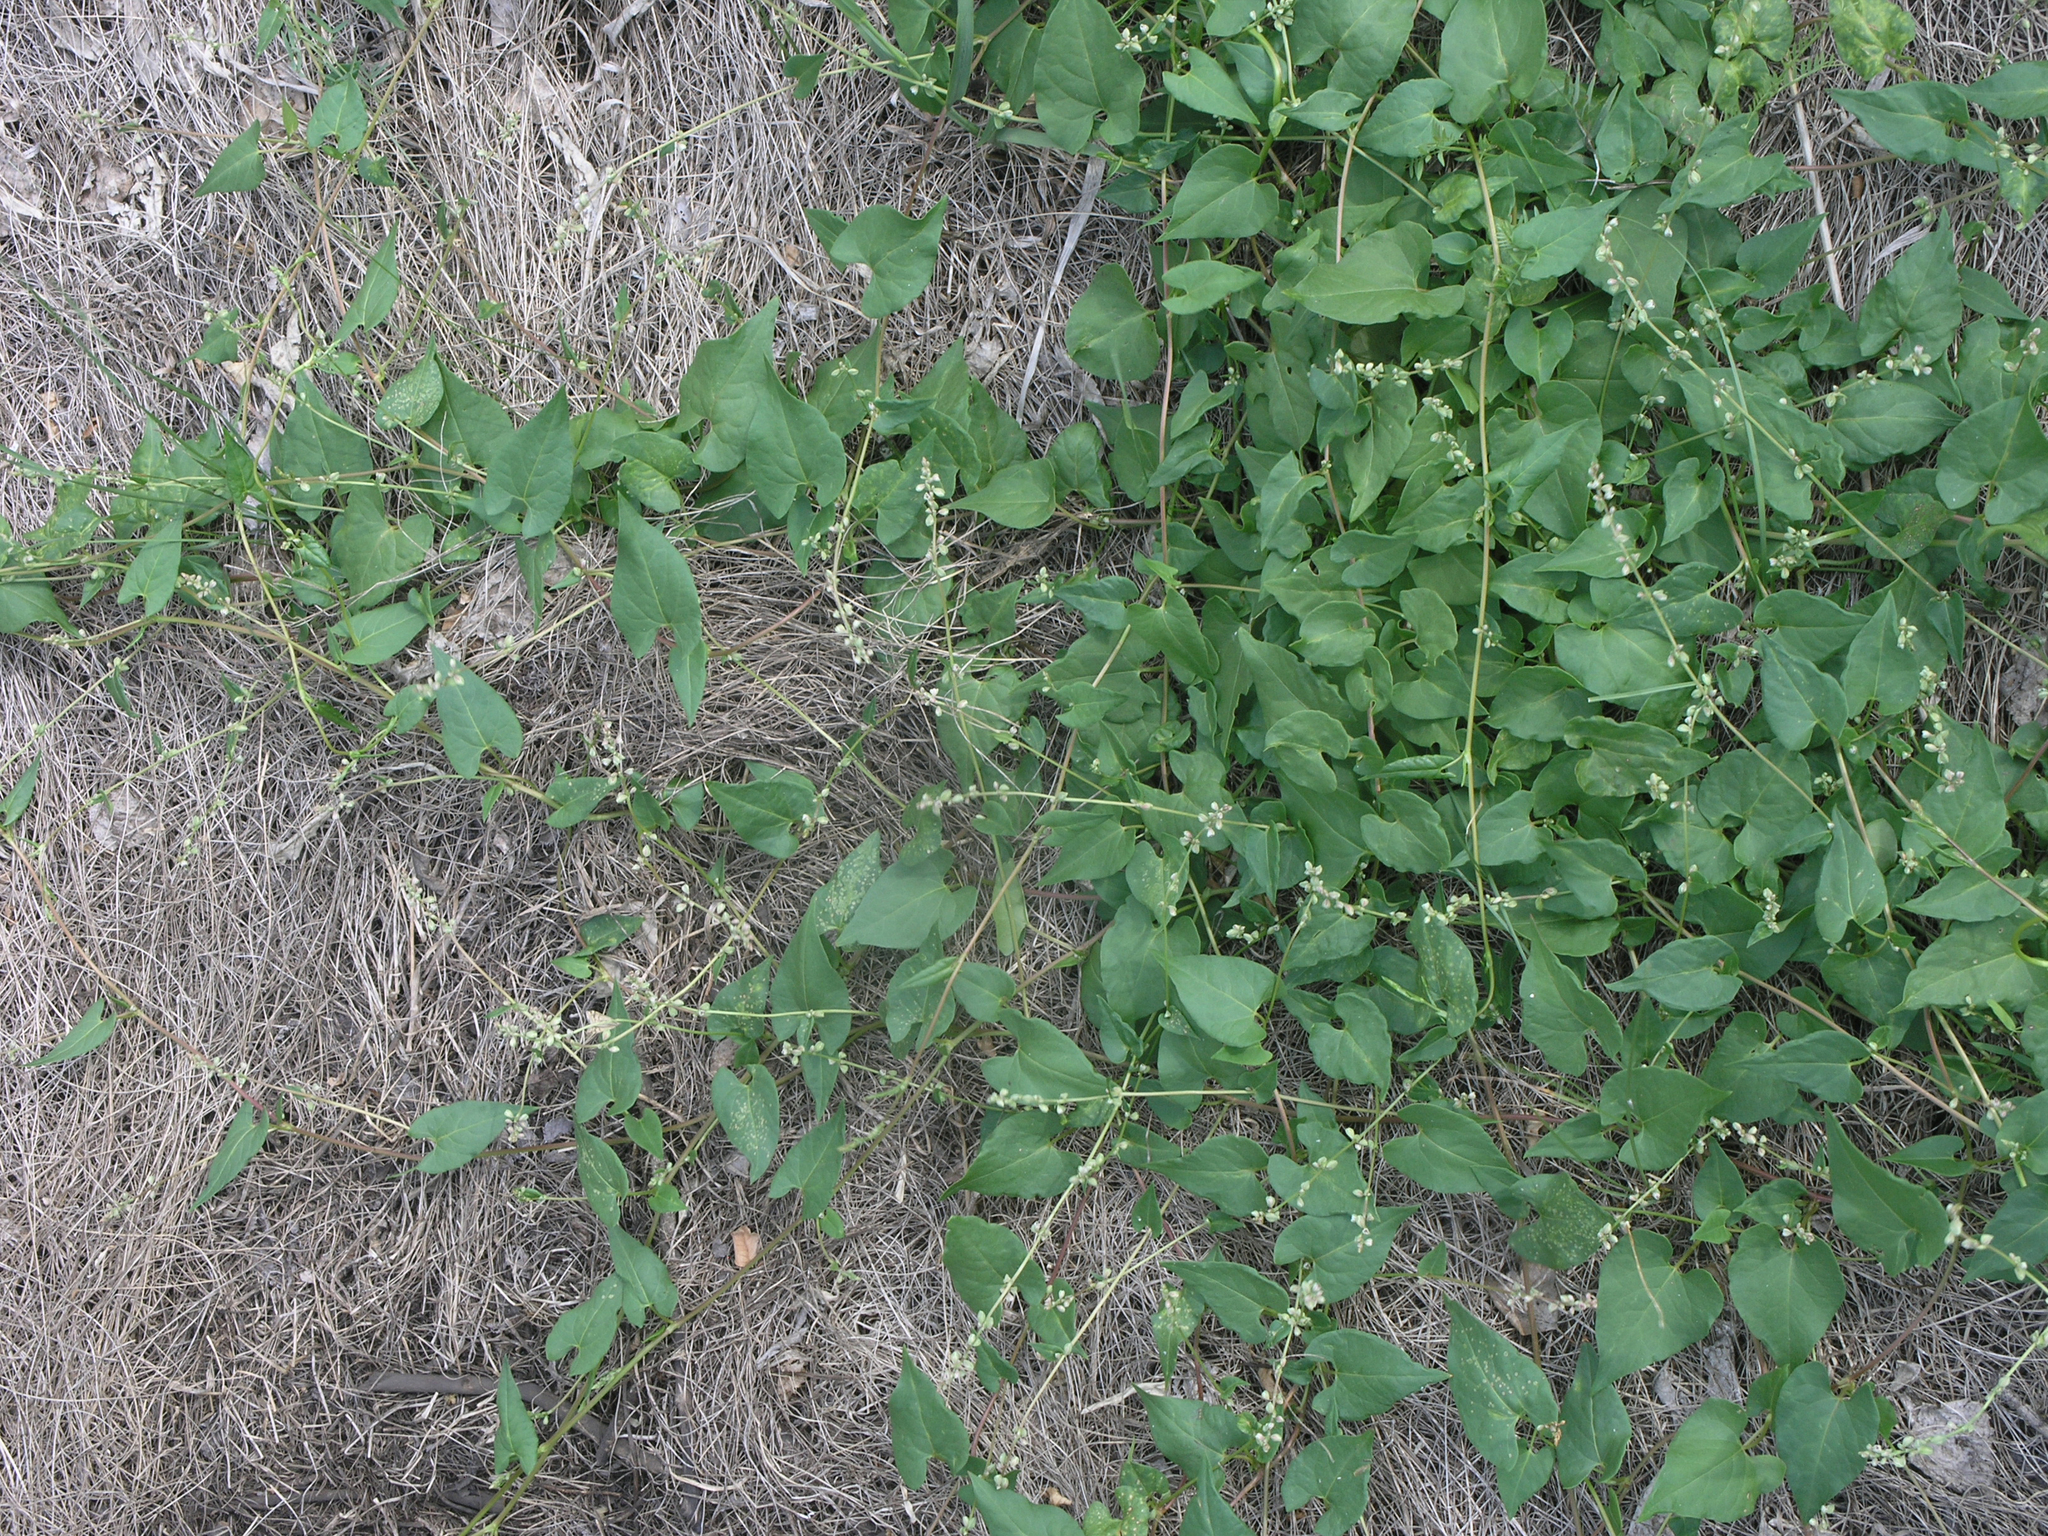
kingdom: Plantae
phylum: Tracheophyta
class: Magnoliopsida
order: Caryophyllales
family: Polygonaceae
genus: Fallopia
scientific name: Fallopia convolvulus
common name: Black bindweed
